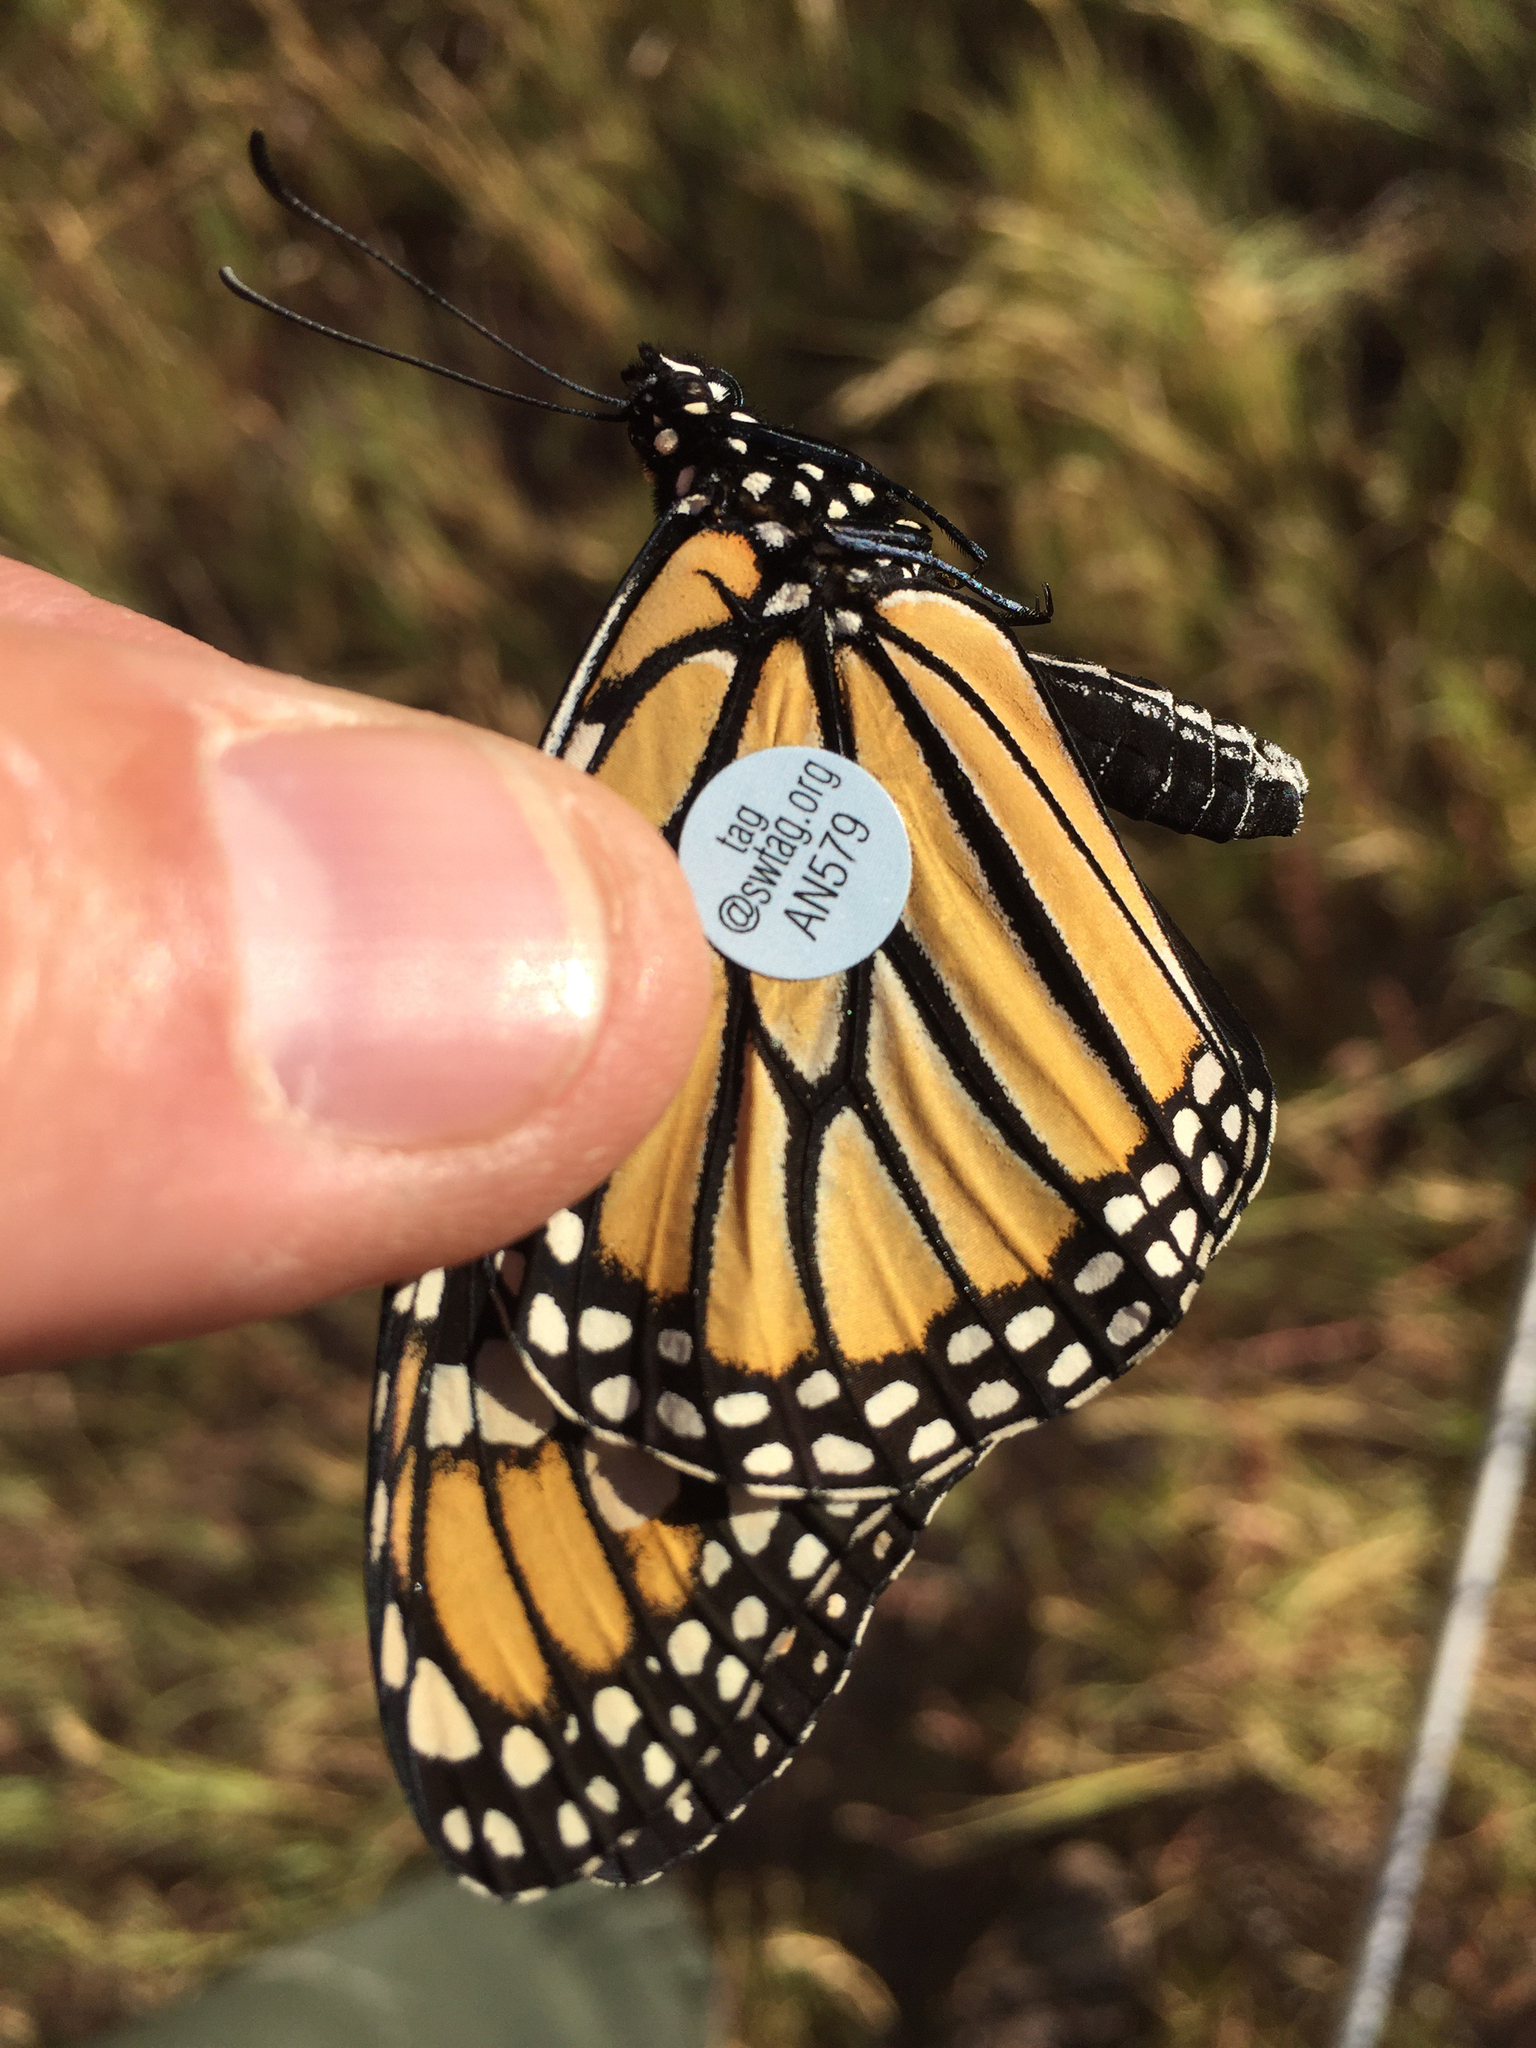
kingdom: Animalia
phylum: Arthropoda
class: Insecta
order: Lepidoptera
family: Nymphalidae
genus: Danaus
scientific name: Danaus plexippus
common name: Monarch
